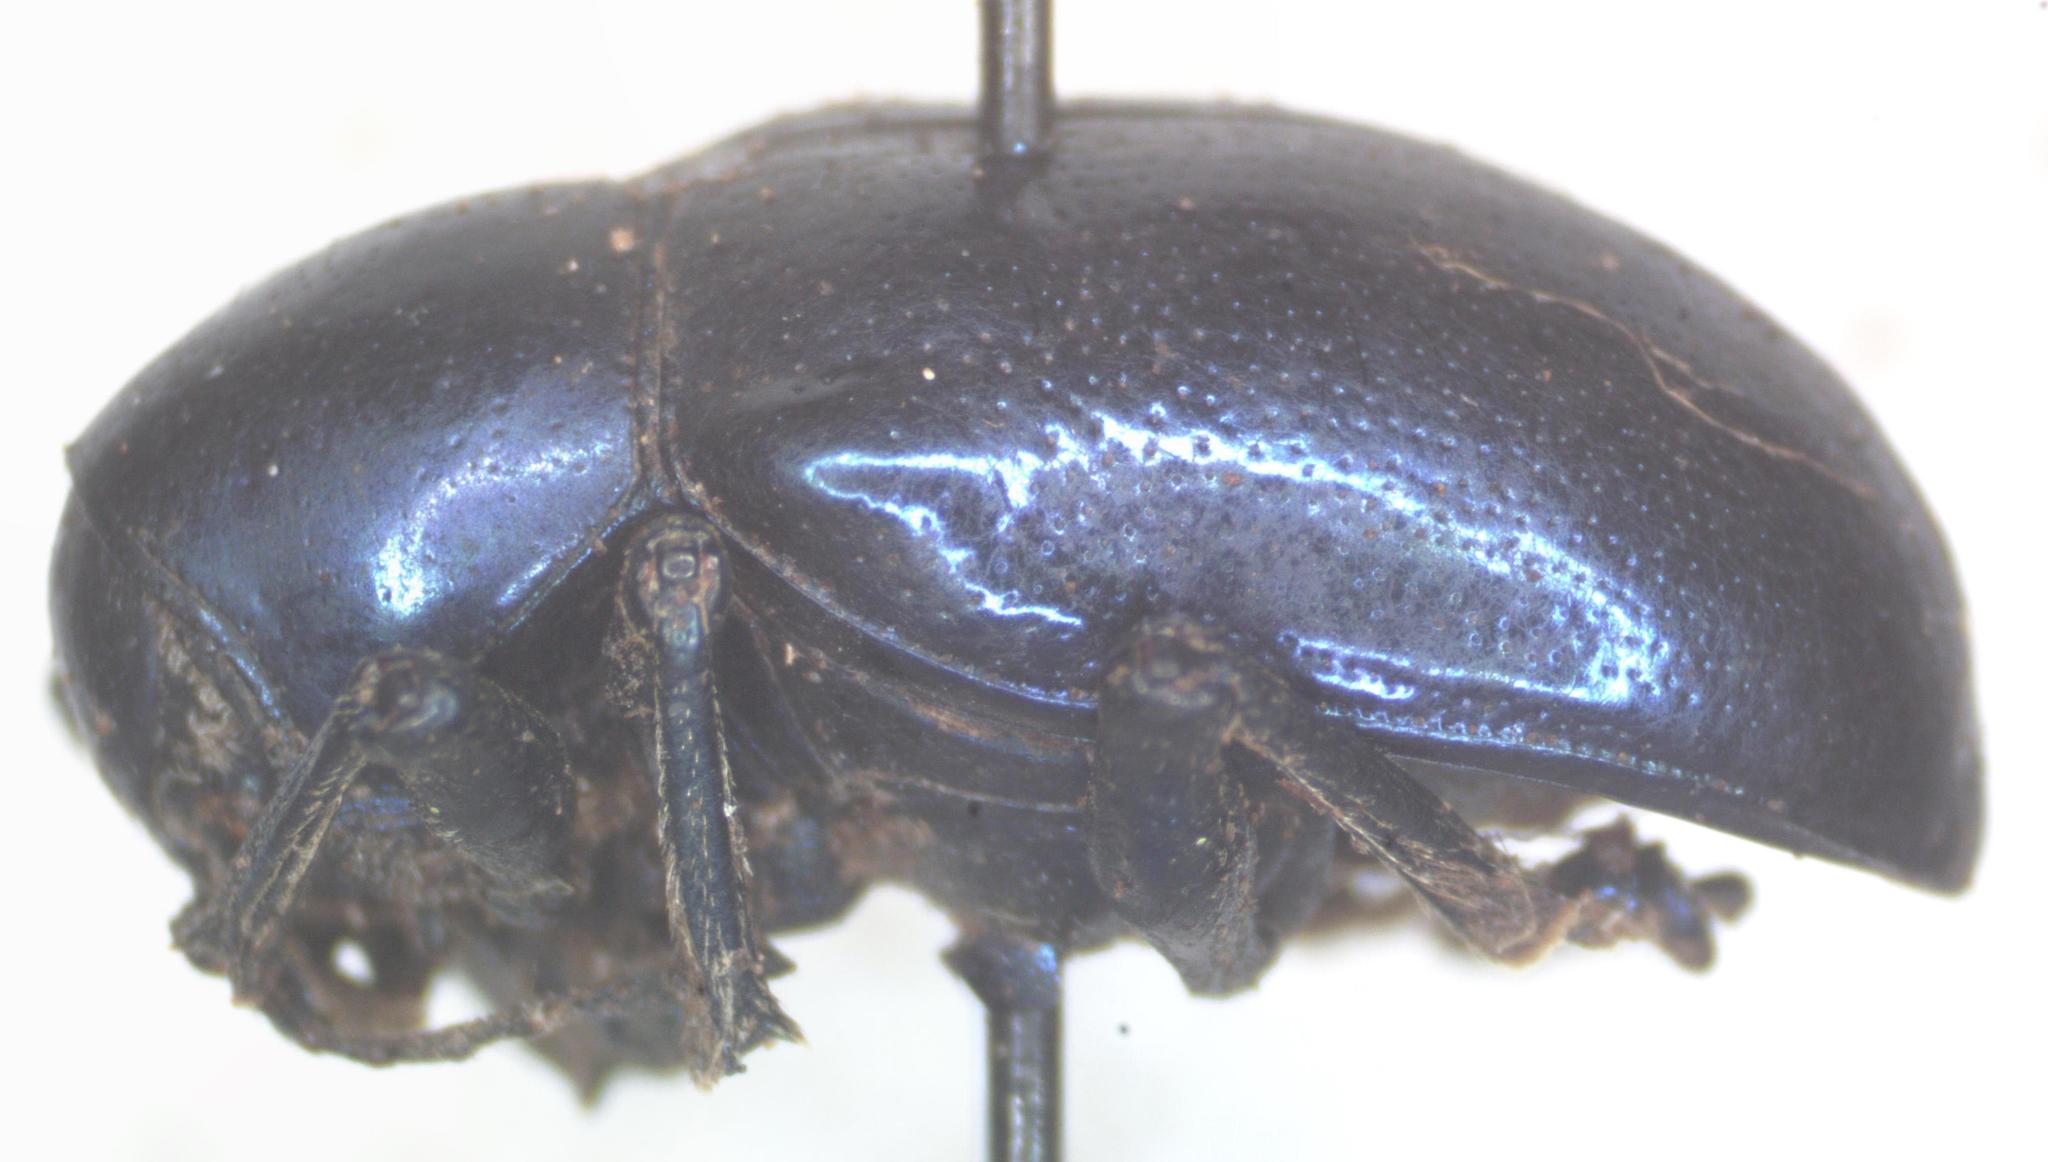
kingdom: Animalia
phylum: Arthropoda
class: Insecta
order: Coleoptera
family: Chrysomelidae
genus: Platycorynus
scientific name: Platycorynus
